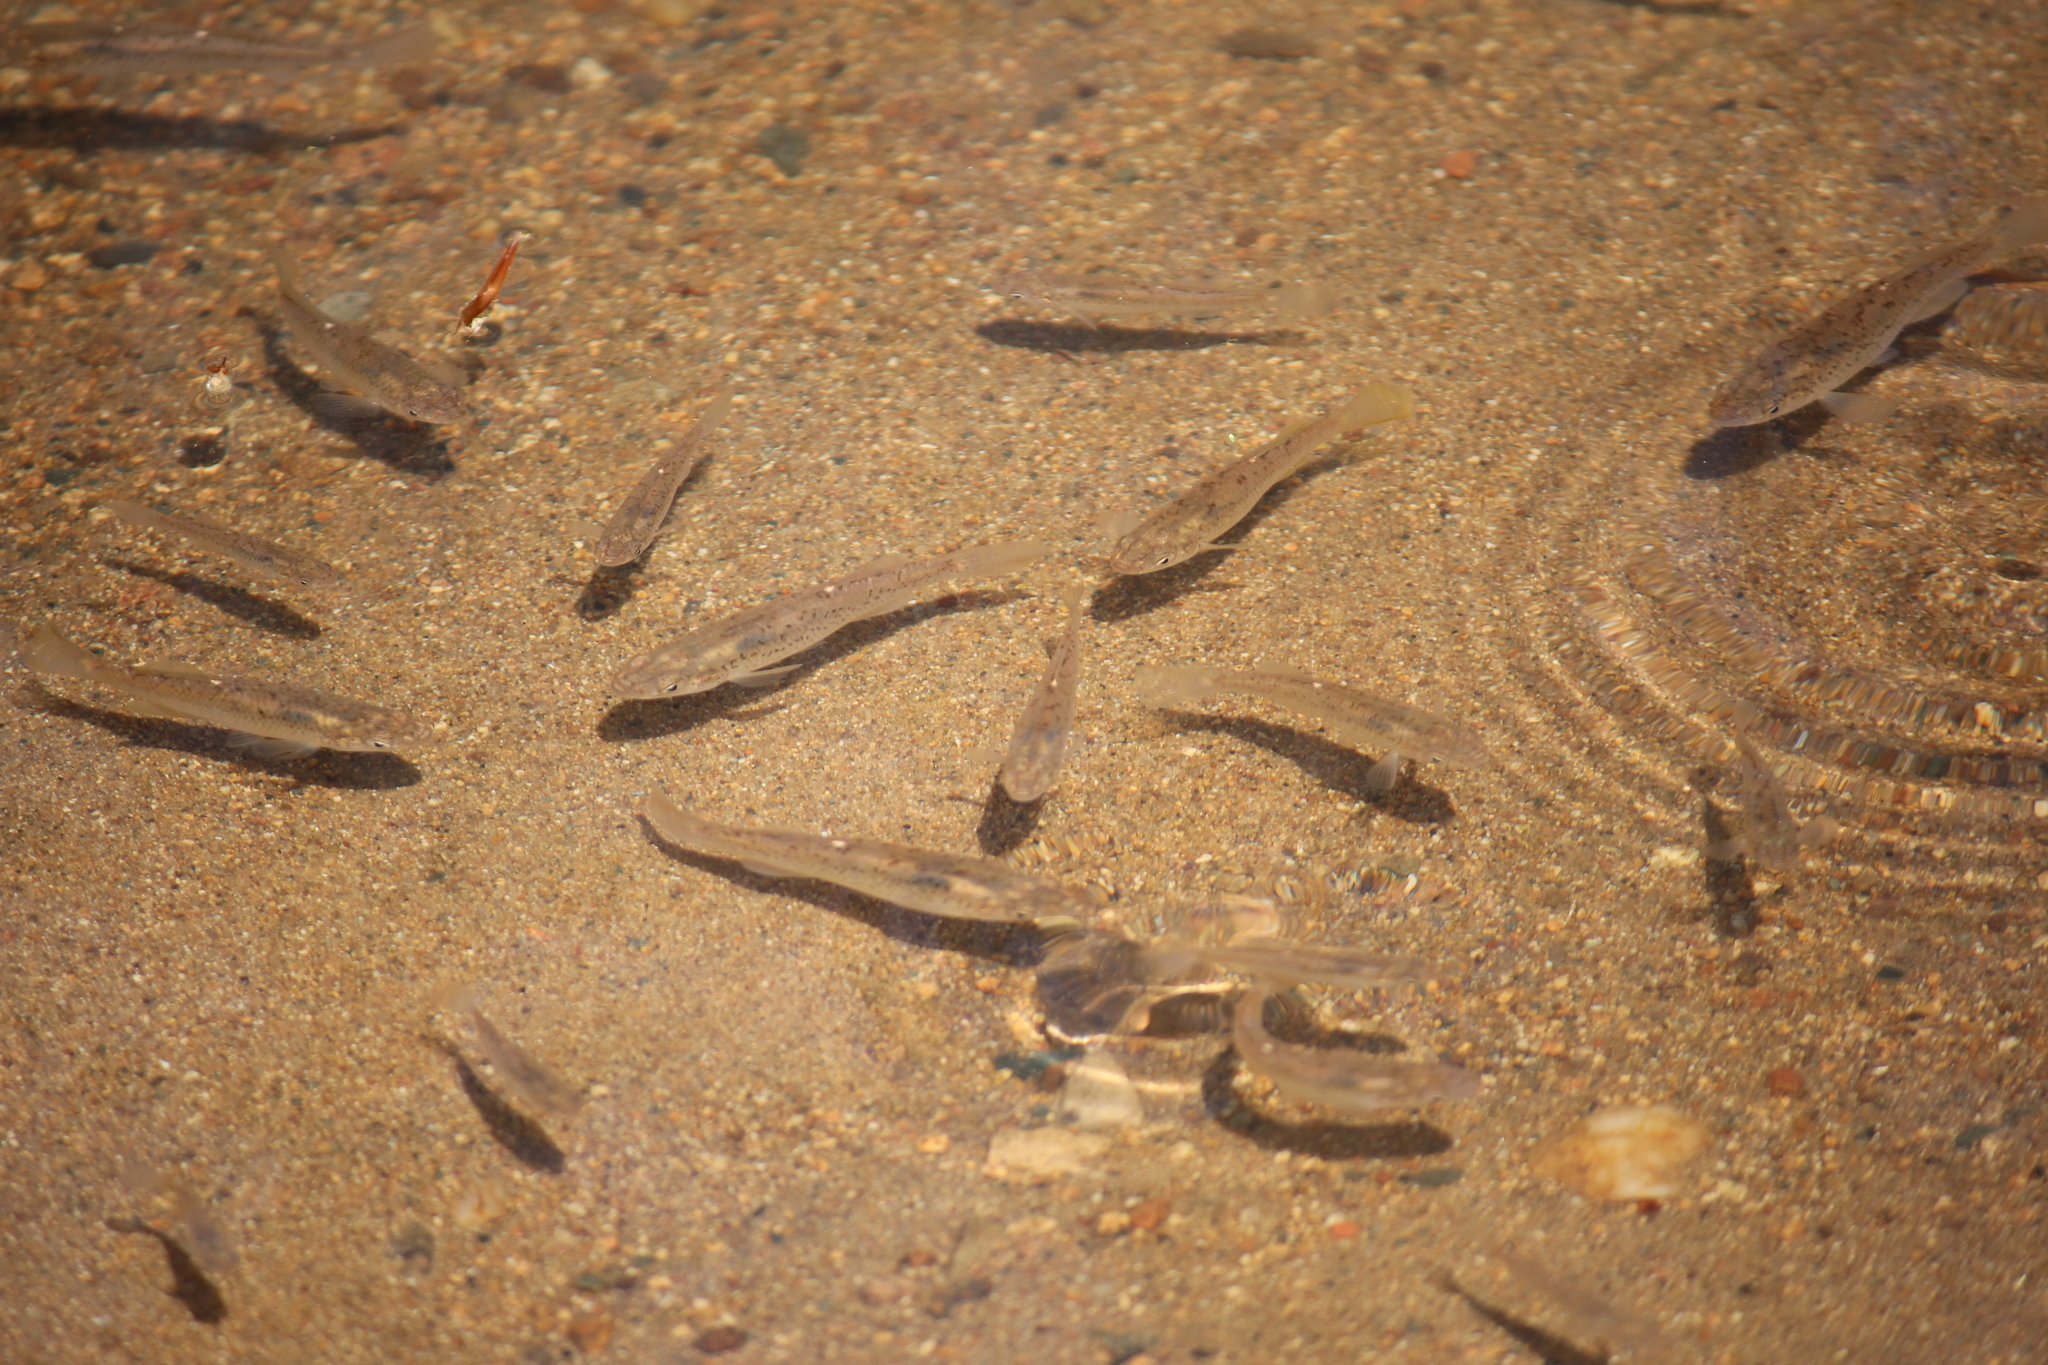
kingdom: Animalia
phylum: Chordata
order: Cyprinodontiformes
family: Fundulidae
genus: Fundulus
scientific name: Fundulus rathbuni
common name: Speckled killifish
